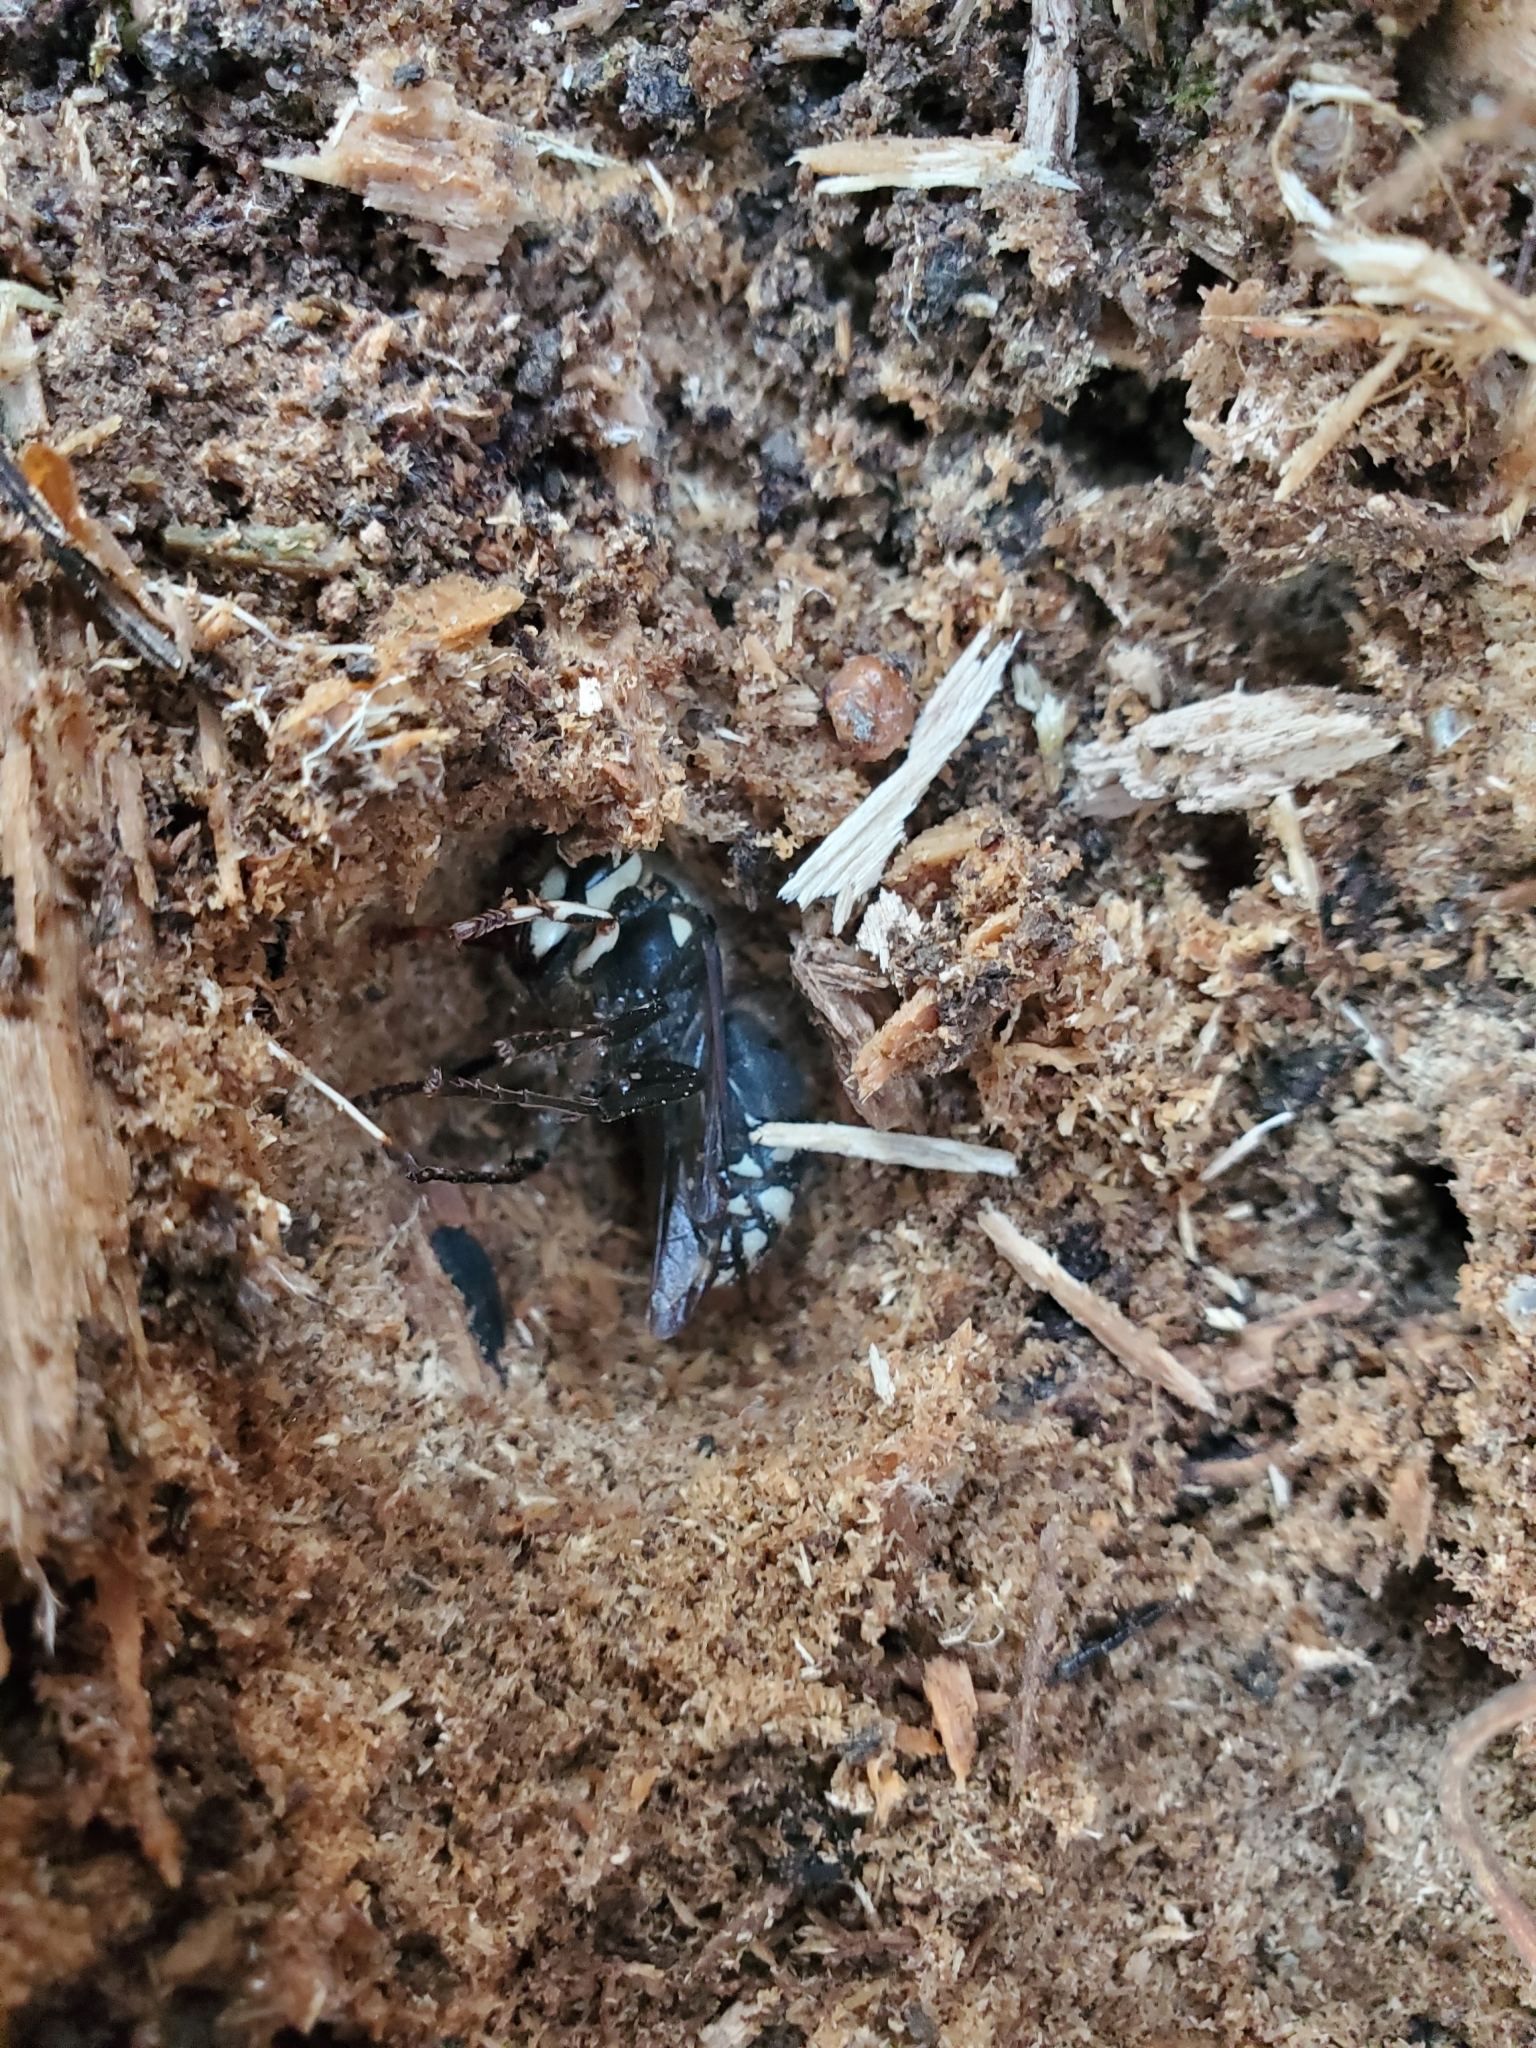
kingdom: Animalia
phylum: Arthropoda
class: Insecta
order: Hymenoptera
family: Vespidae
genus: Dolichovespula
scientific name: Dolichovespula maculata
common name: Bald-faced hornet
